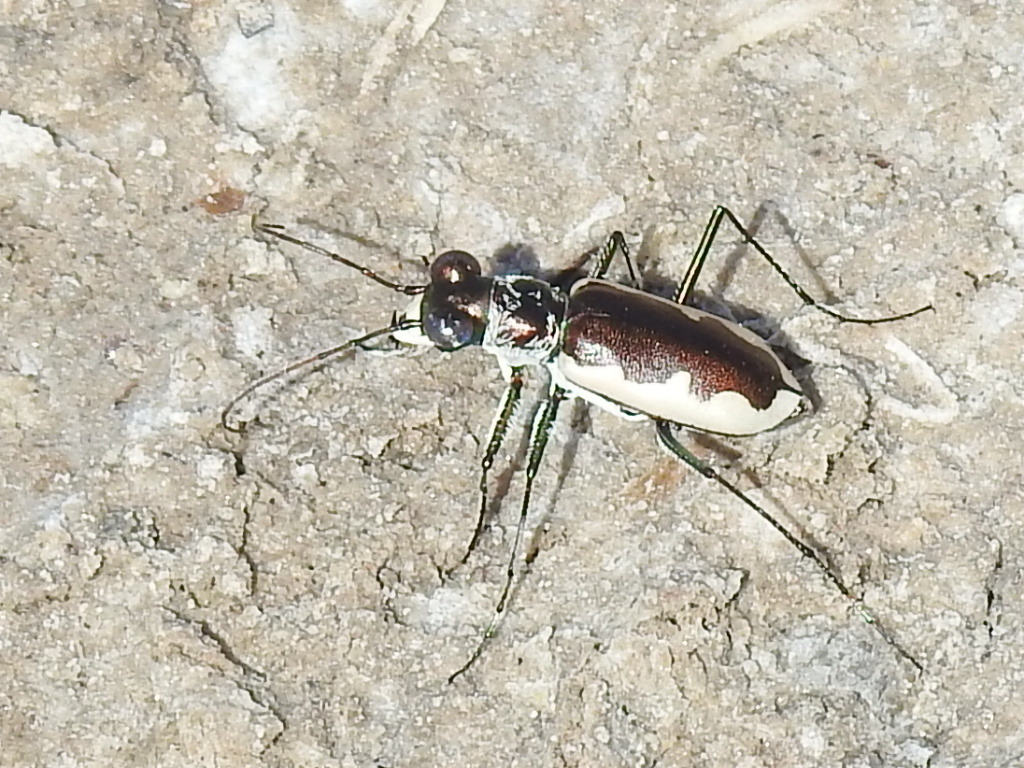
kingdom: Animalia
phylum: Arthropoda
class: Insecta
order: Coleoptera
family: Carabidae
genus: Eunota
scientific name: Eunota circumpicta
